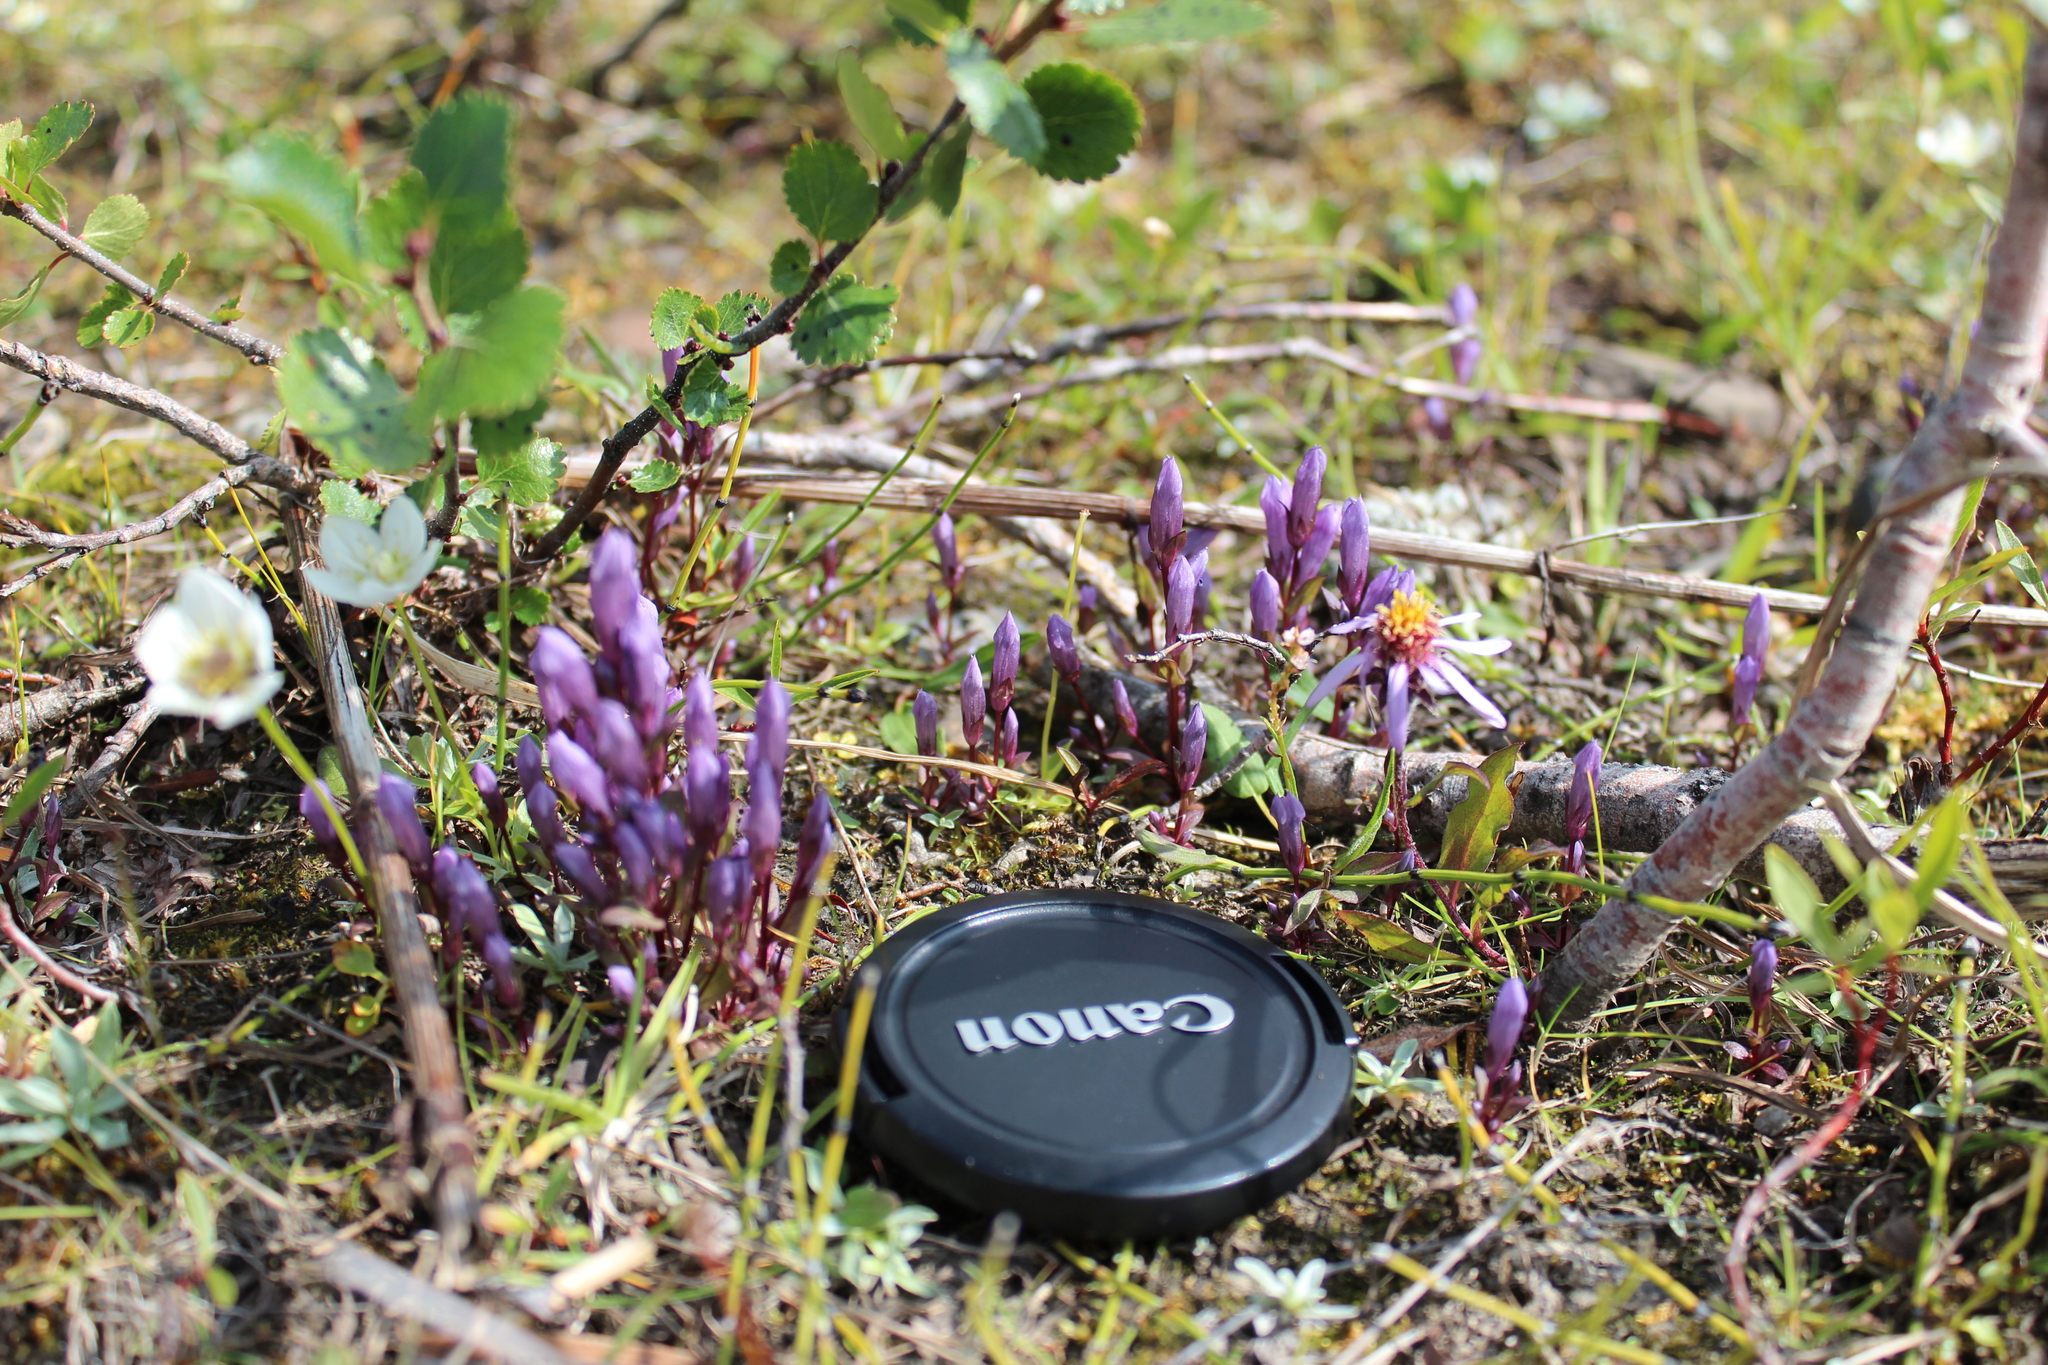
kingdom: Plantae
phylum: Tracheophyta
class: Magnoliopsida
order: Gentianales
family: Gentianaceae
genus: Gentianella
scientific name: Gentianella propinqua
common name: Four-parted dwarf-gentian
